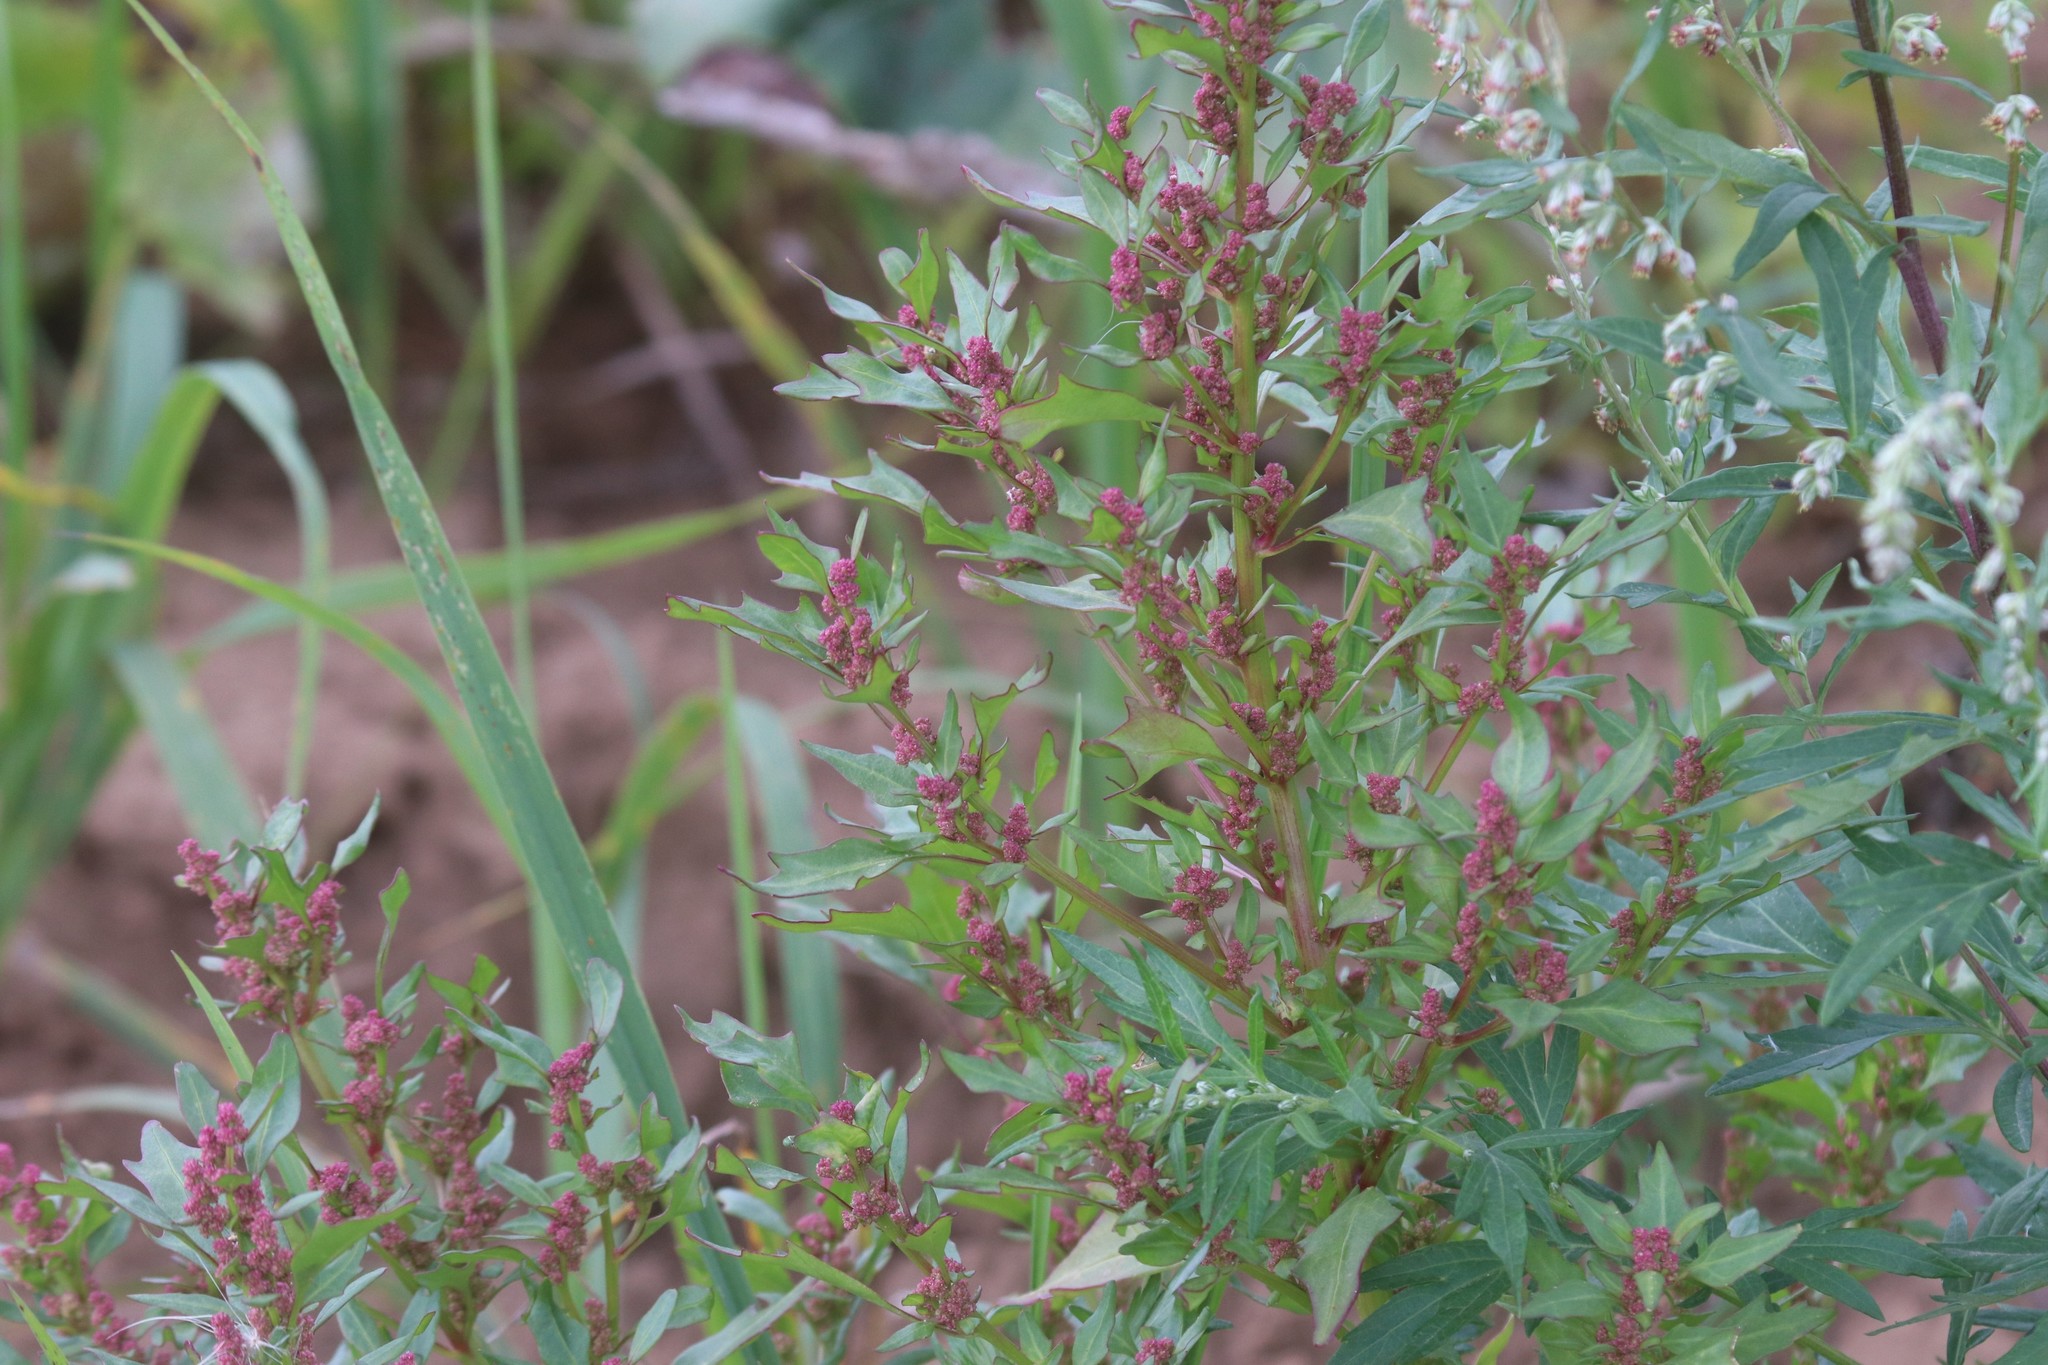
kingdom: Plantae
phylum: Tracheophyta
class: Magnoliopsida
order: Caryophyllales
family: Amaranthaceae
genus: Oxybasis
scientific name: Oxybasis rubra
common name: Red goosefoot
